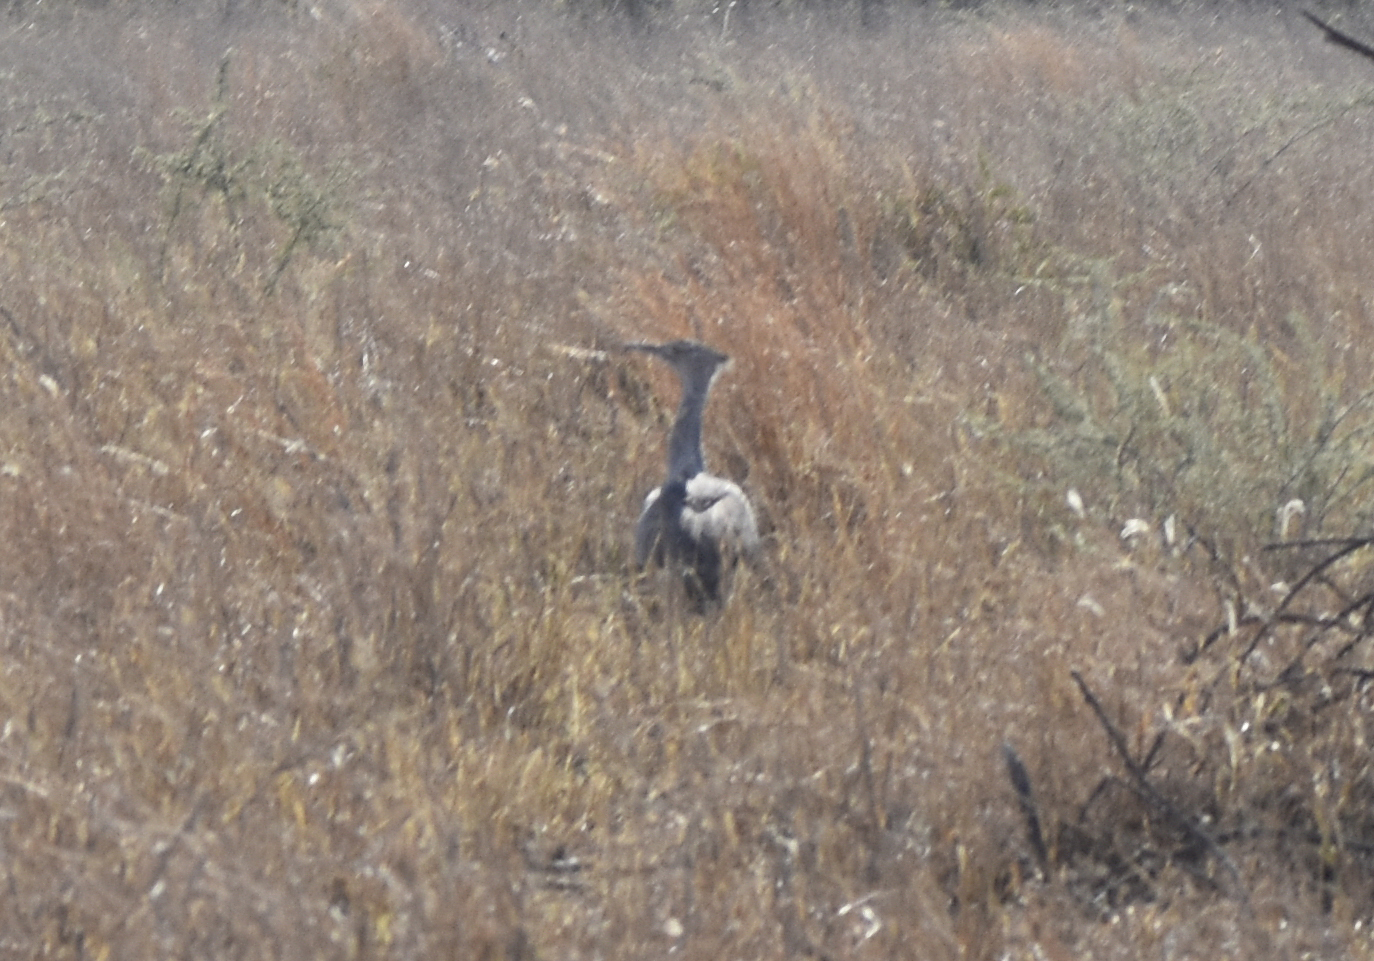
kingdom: Animalia
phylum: Chordata
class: Aves
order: Otidiformes
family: Otididae
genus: Ardeotis
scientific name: Ardeotis kori
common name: Kori bustard
